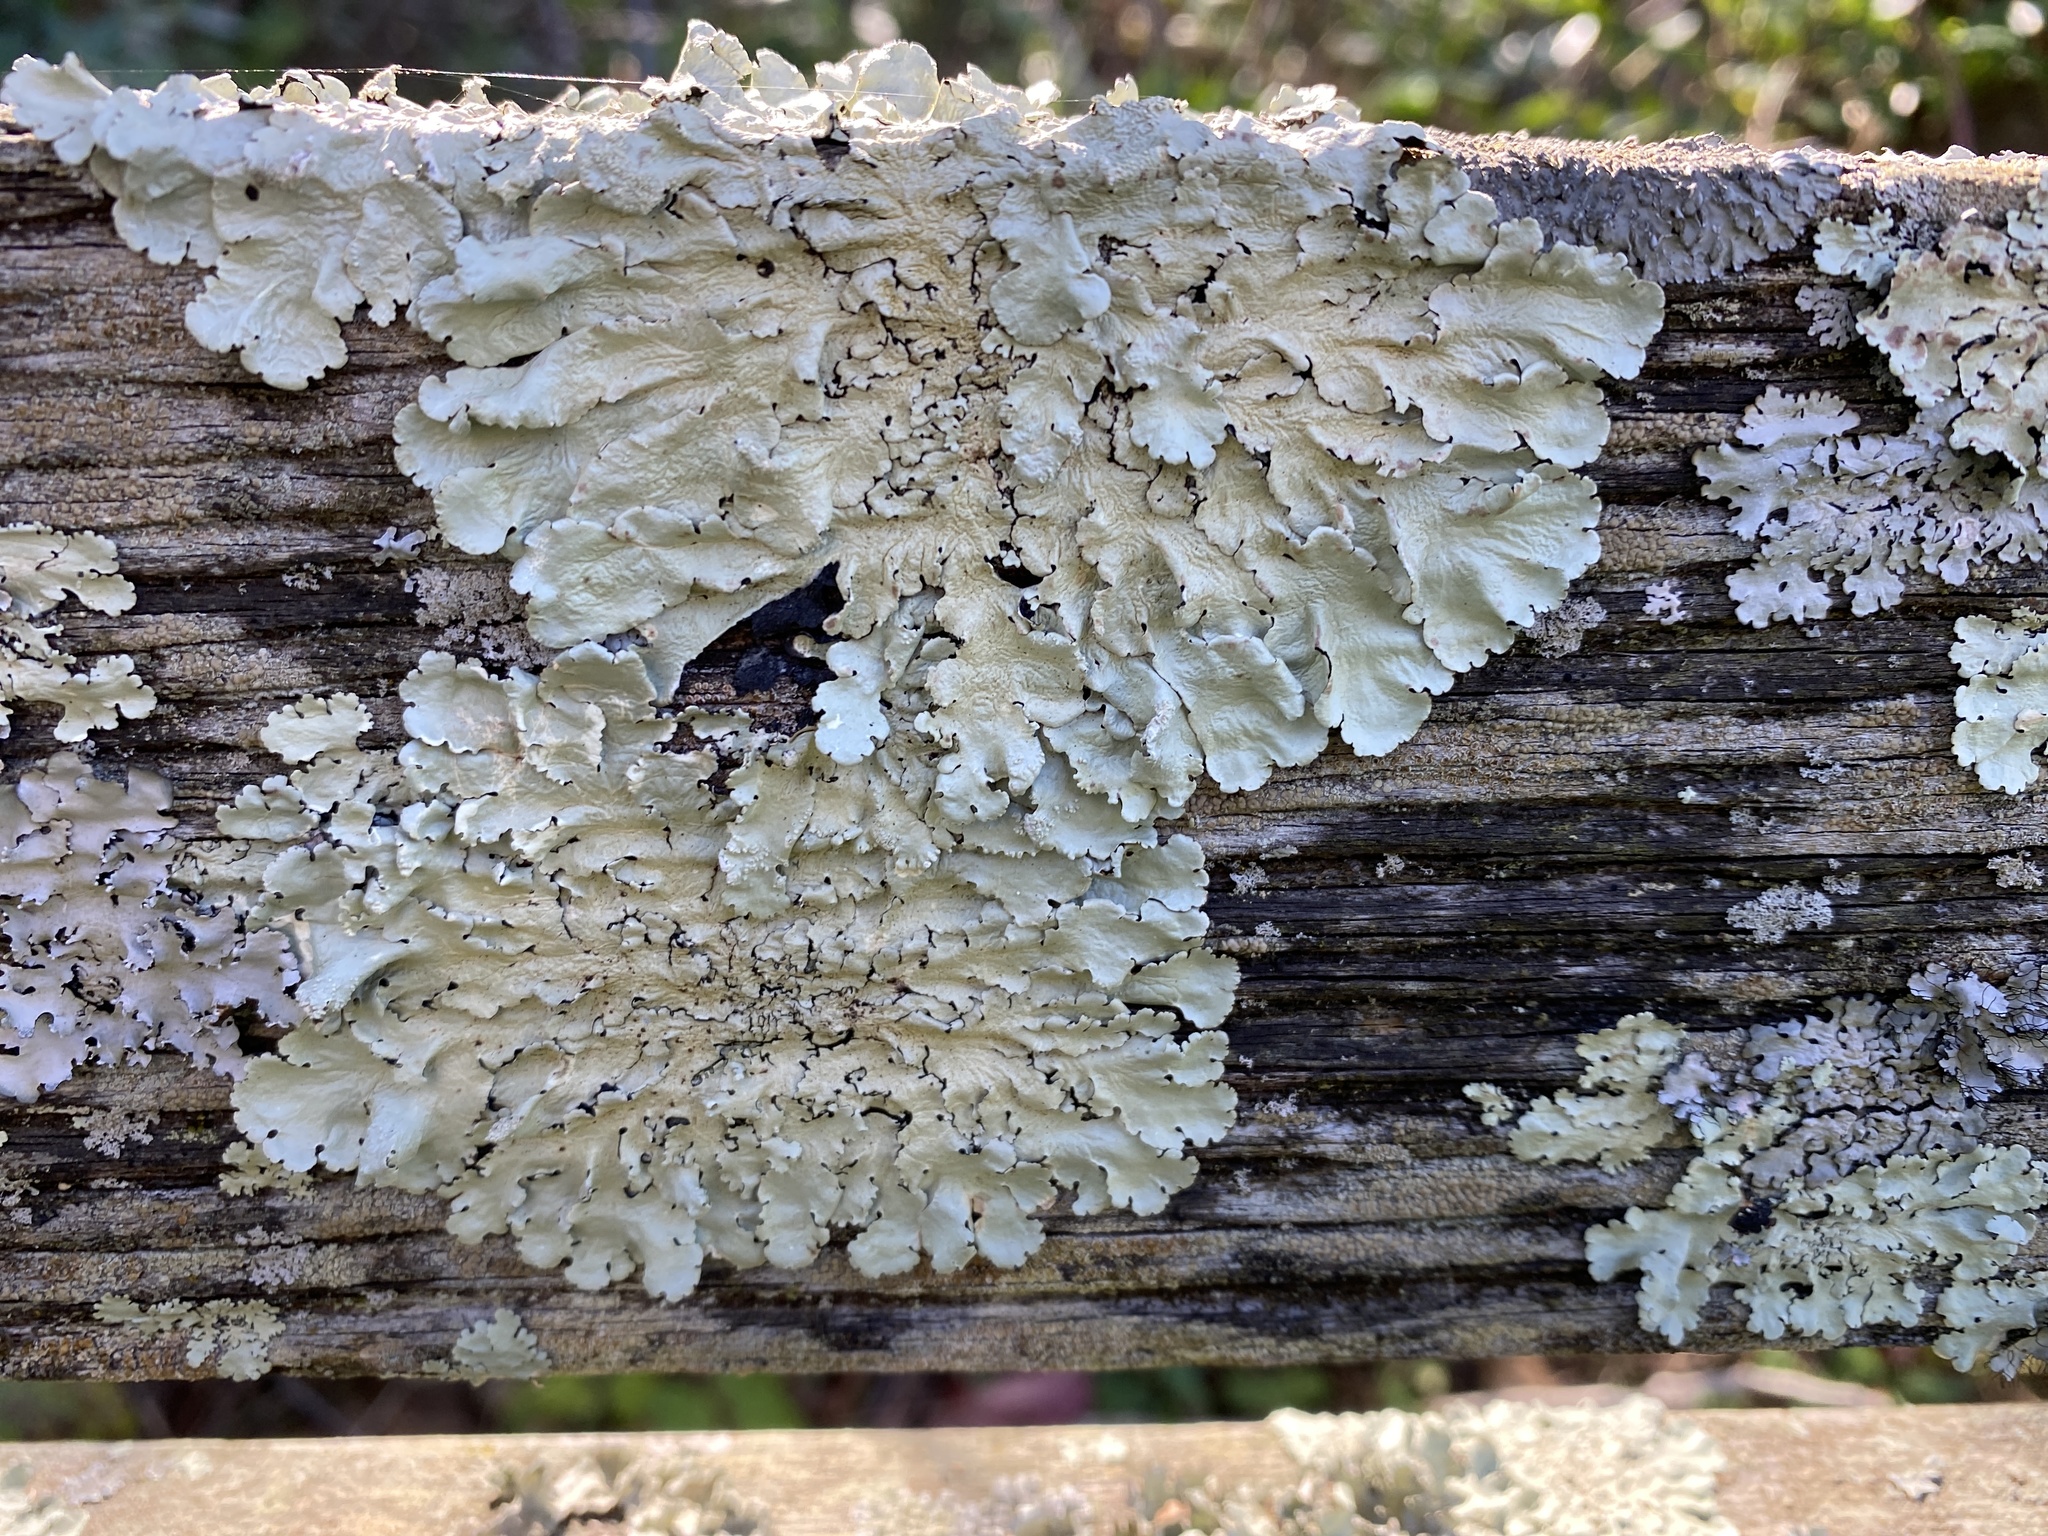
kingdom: Fungi
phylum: Ascomycota
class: Lecanoromycetes
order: Lecanorales
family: Parmeliaceae
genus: Flavoparmelia
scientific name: Flavoparmelia caperata
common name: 40-mile per hour lichen
